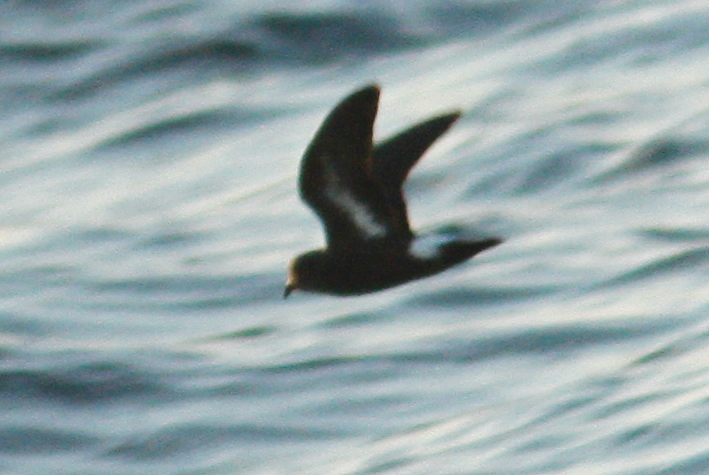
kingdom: Animalia
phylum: Chordata
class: Aves
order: Procellariiformes
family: Hydrobatidae
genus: Hydrobates
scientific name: Hydrobates pelagicus
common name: European storm-petrel
